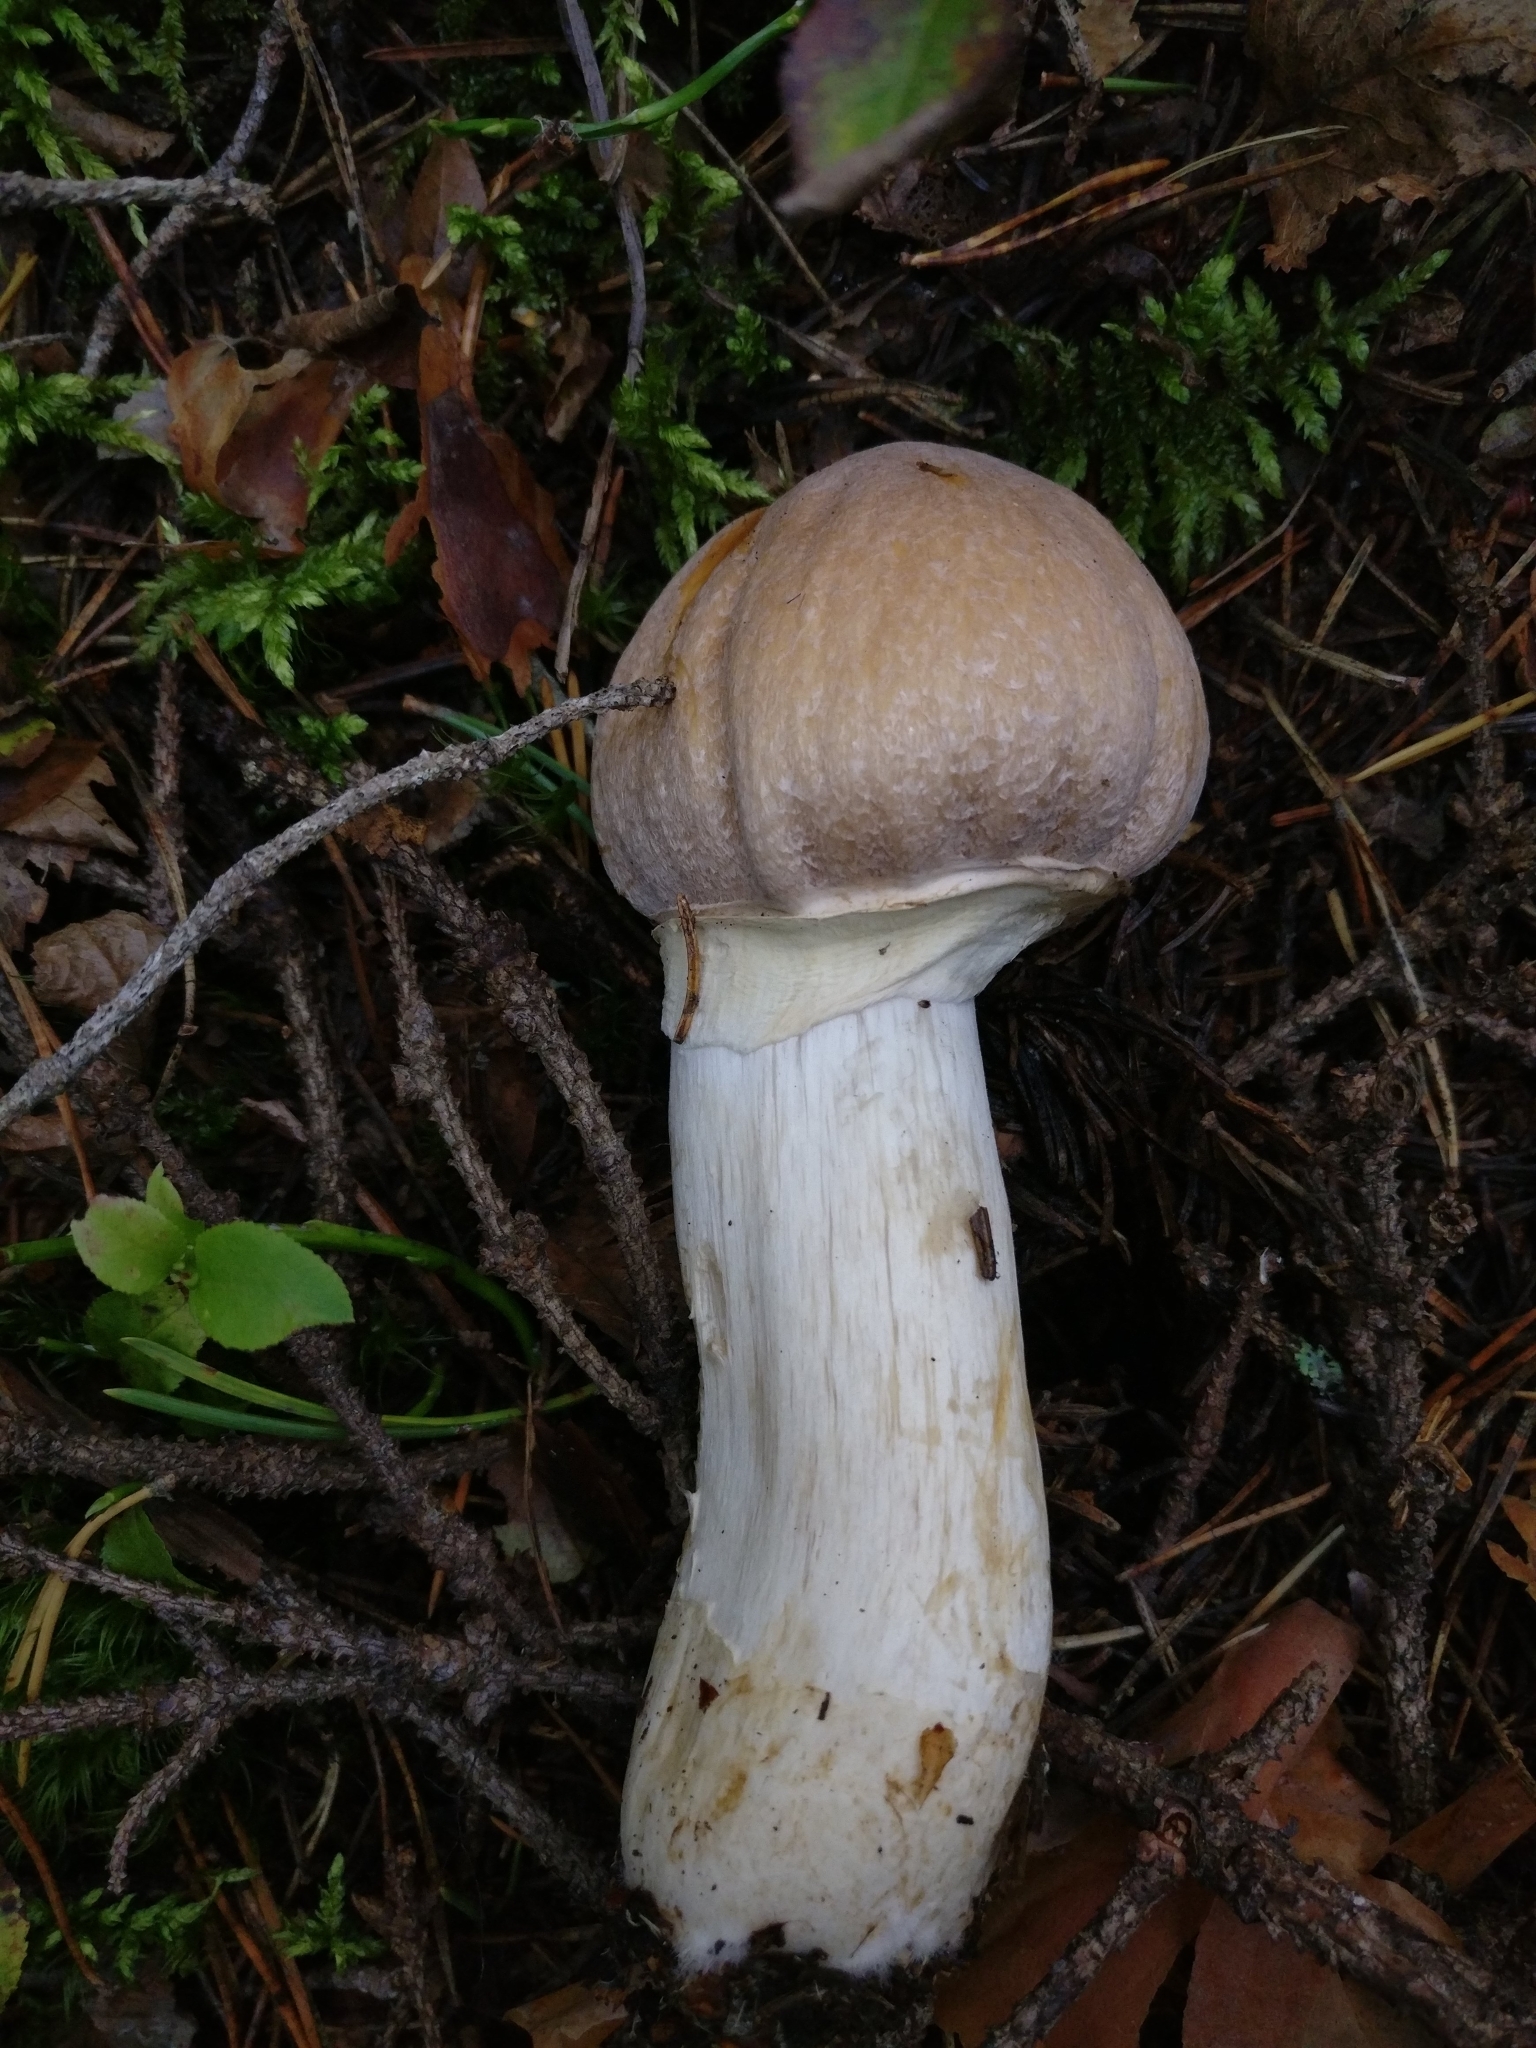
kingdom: Fungi
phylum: Basidiomycota
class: Agaricomycetes
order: Agaricales
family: Cortinariaceae
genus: Cortinarius
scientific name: Cortinarius caperatus
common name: The gypsy
